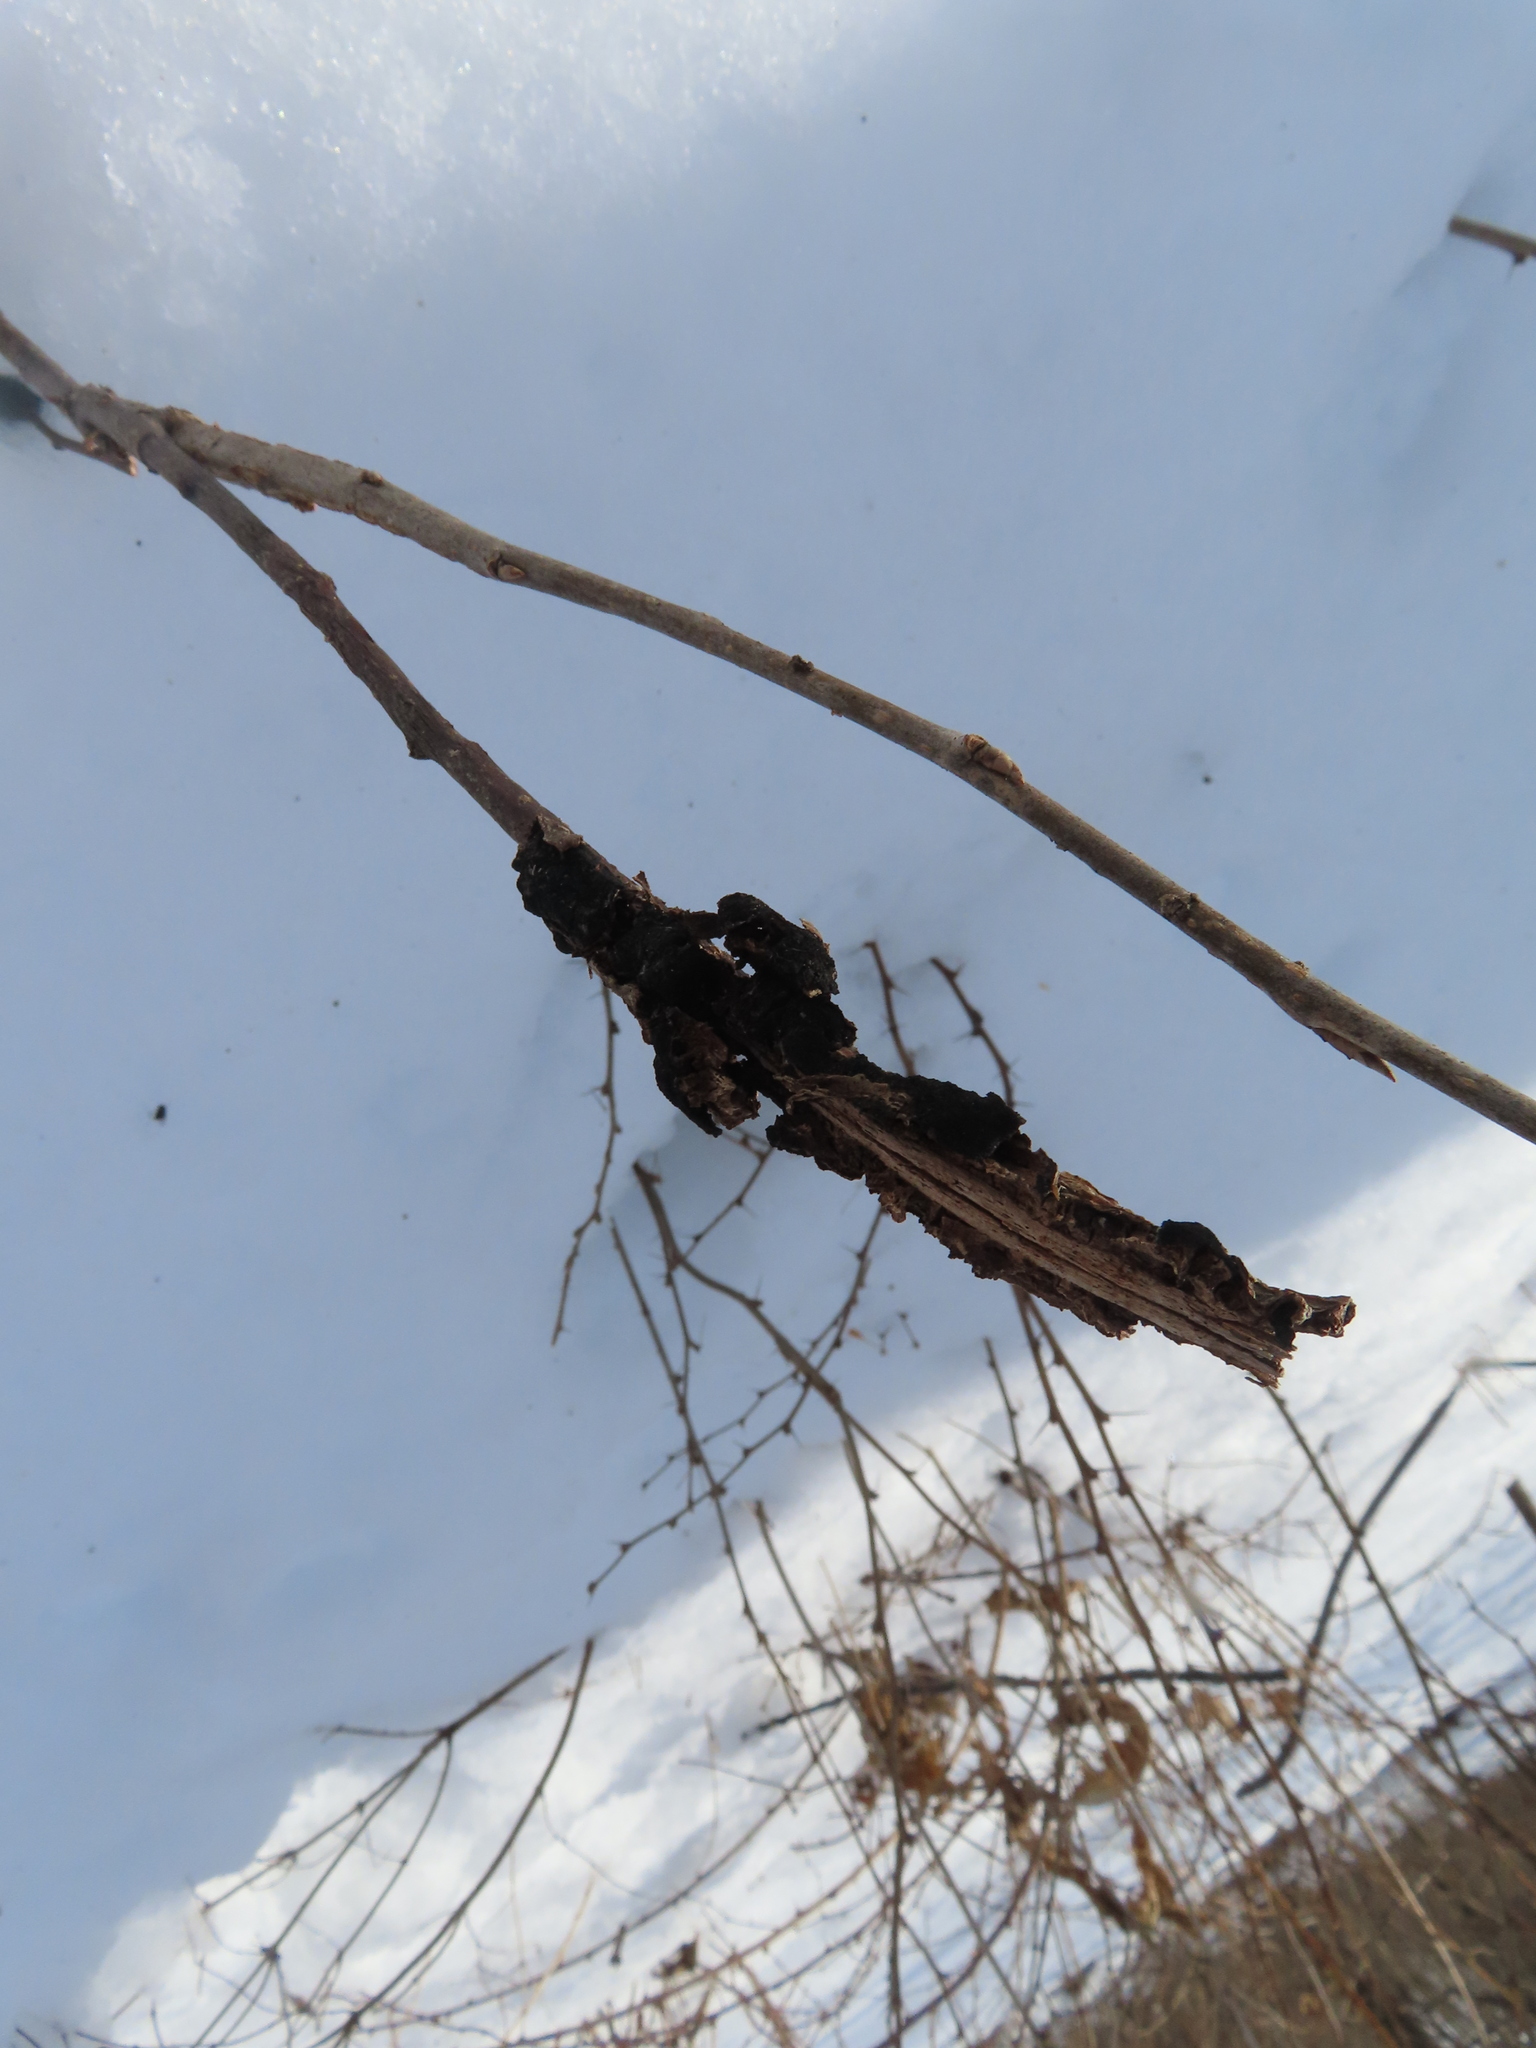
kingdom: Fungi
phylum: Ascomycota
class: Dothideomycetes
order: Venturiales
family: Venturiaceae
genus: Apiosporina
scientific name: Apiosporina morbosa
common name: Black knot
